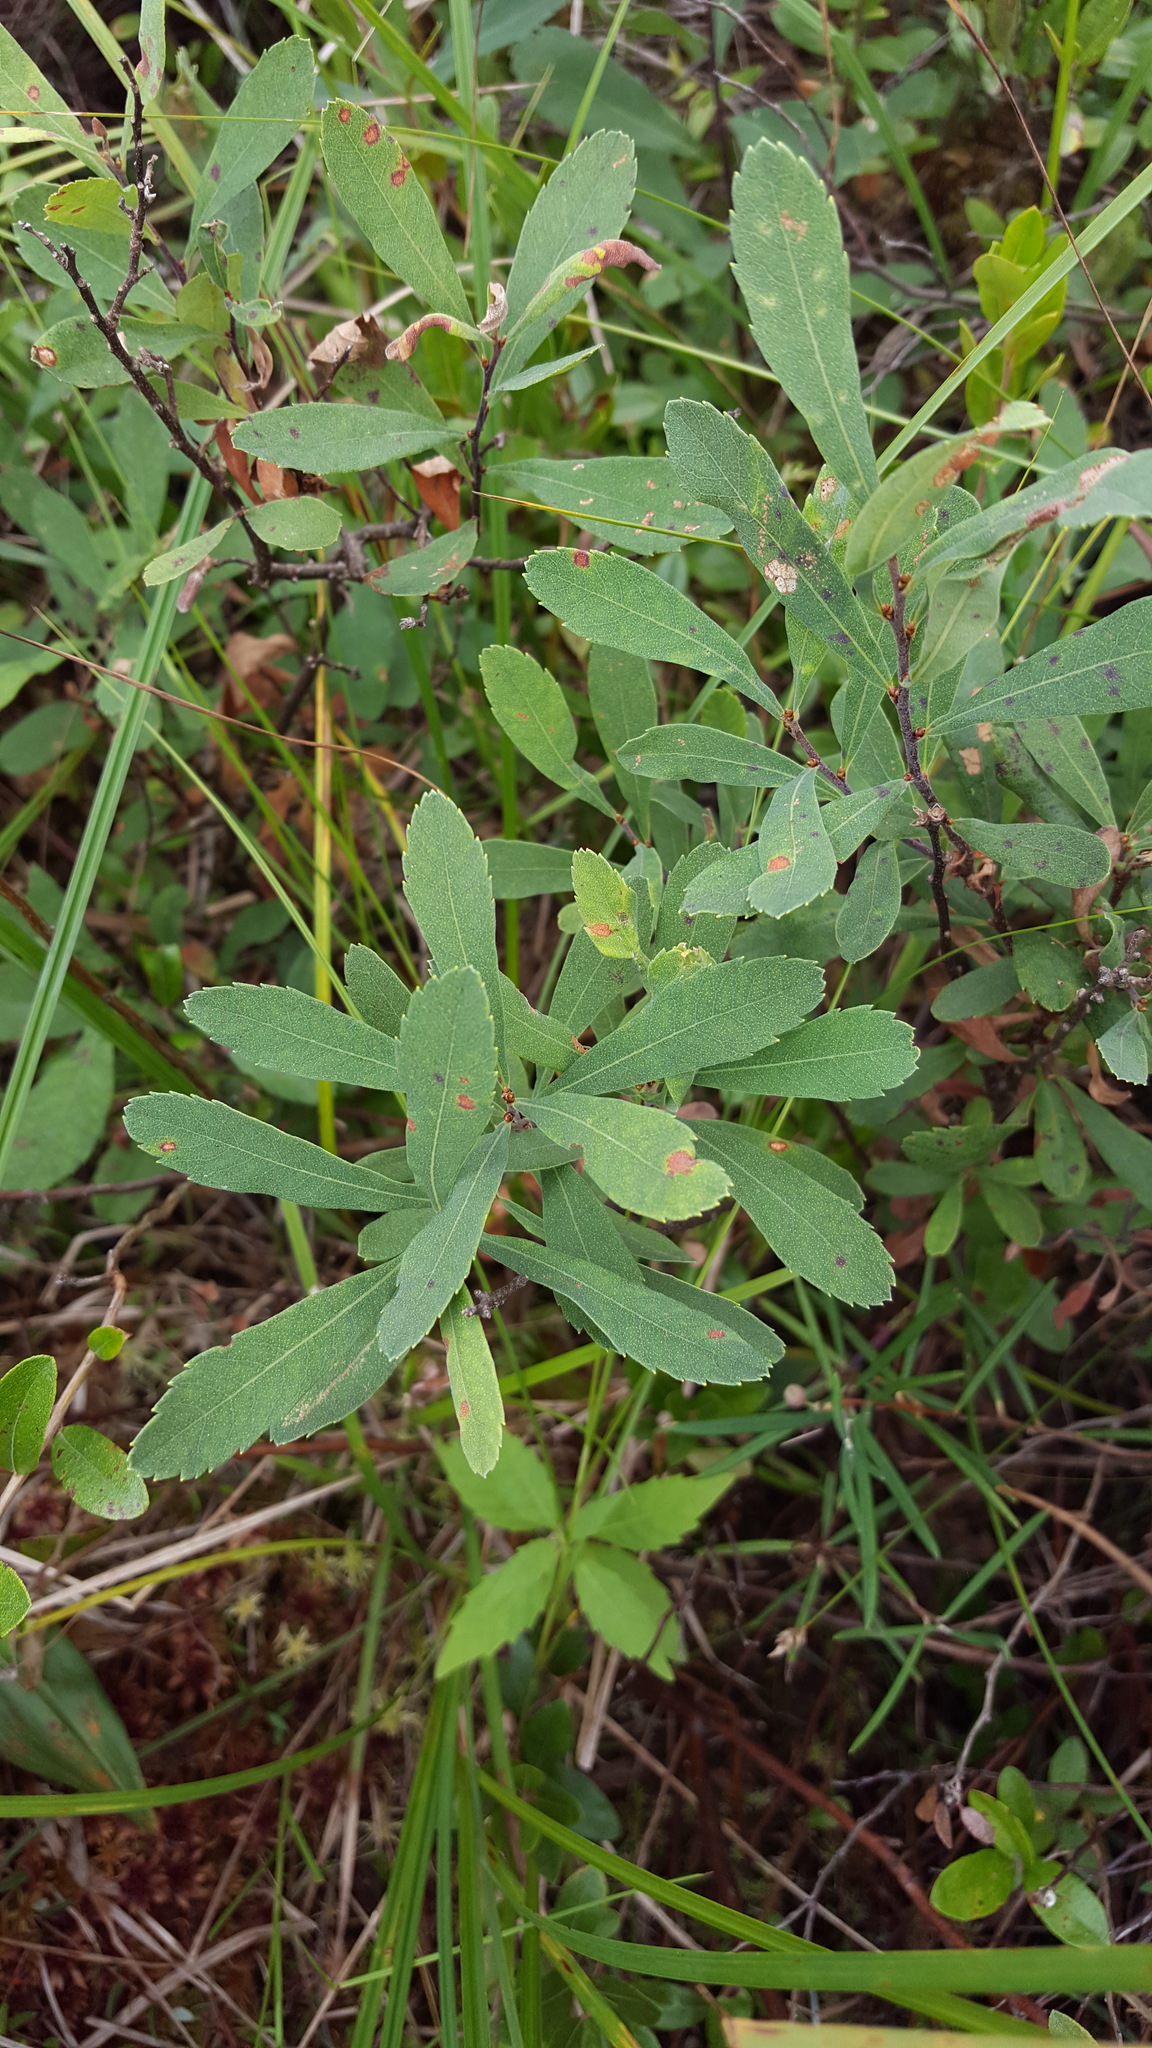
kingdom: Plantae
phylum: Tracheophyta
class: Magnoliopsida
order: Fagales
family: Myricaceae
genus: Myrica
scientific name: Myrica gale
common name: Sweet gale
